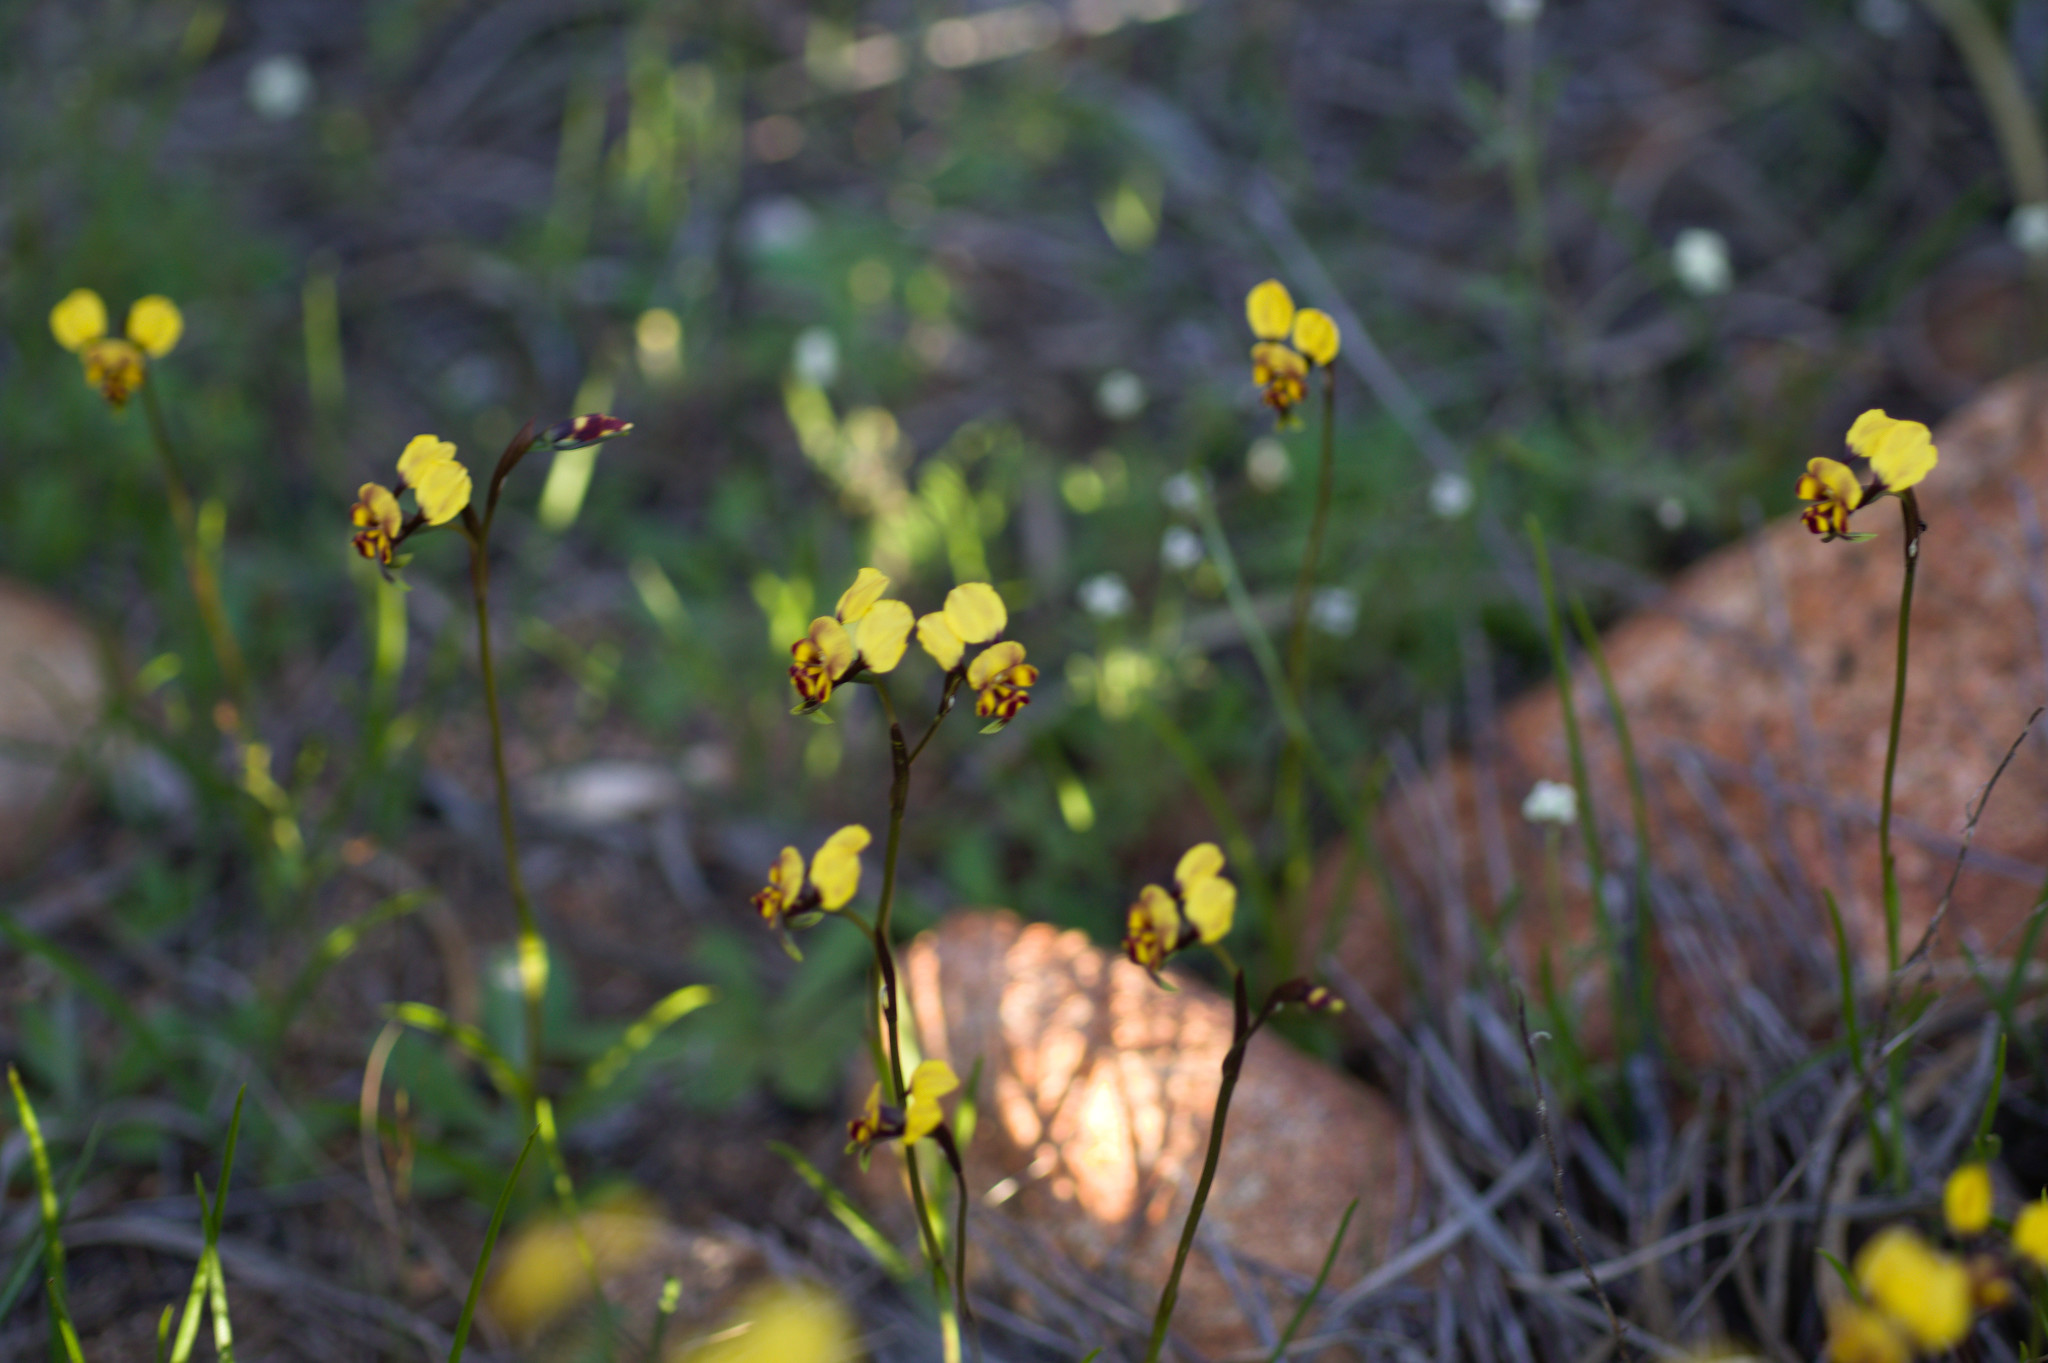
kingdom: Plantae
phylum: Tracheophyta
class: Liliopsida
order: Asparagales
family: Orchidaceae
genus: Diuris
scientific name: Diuris hazeliae
